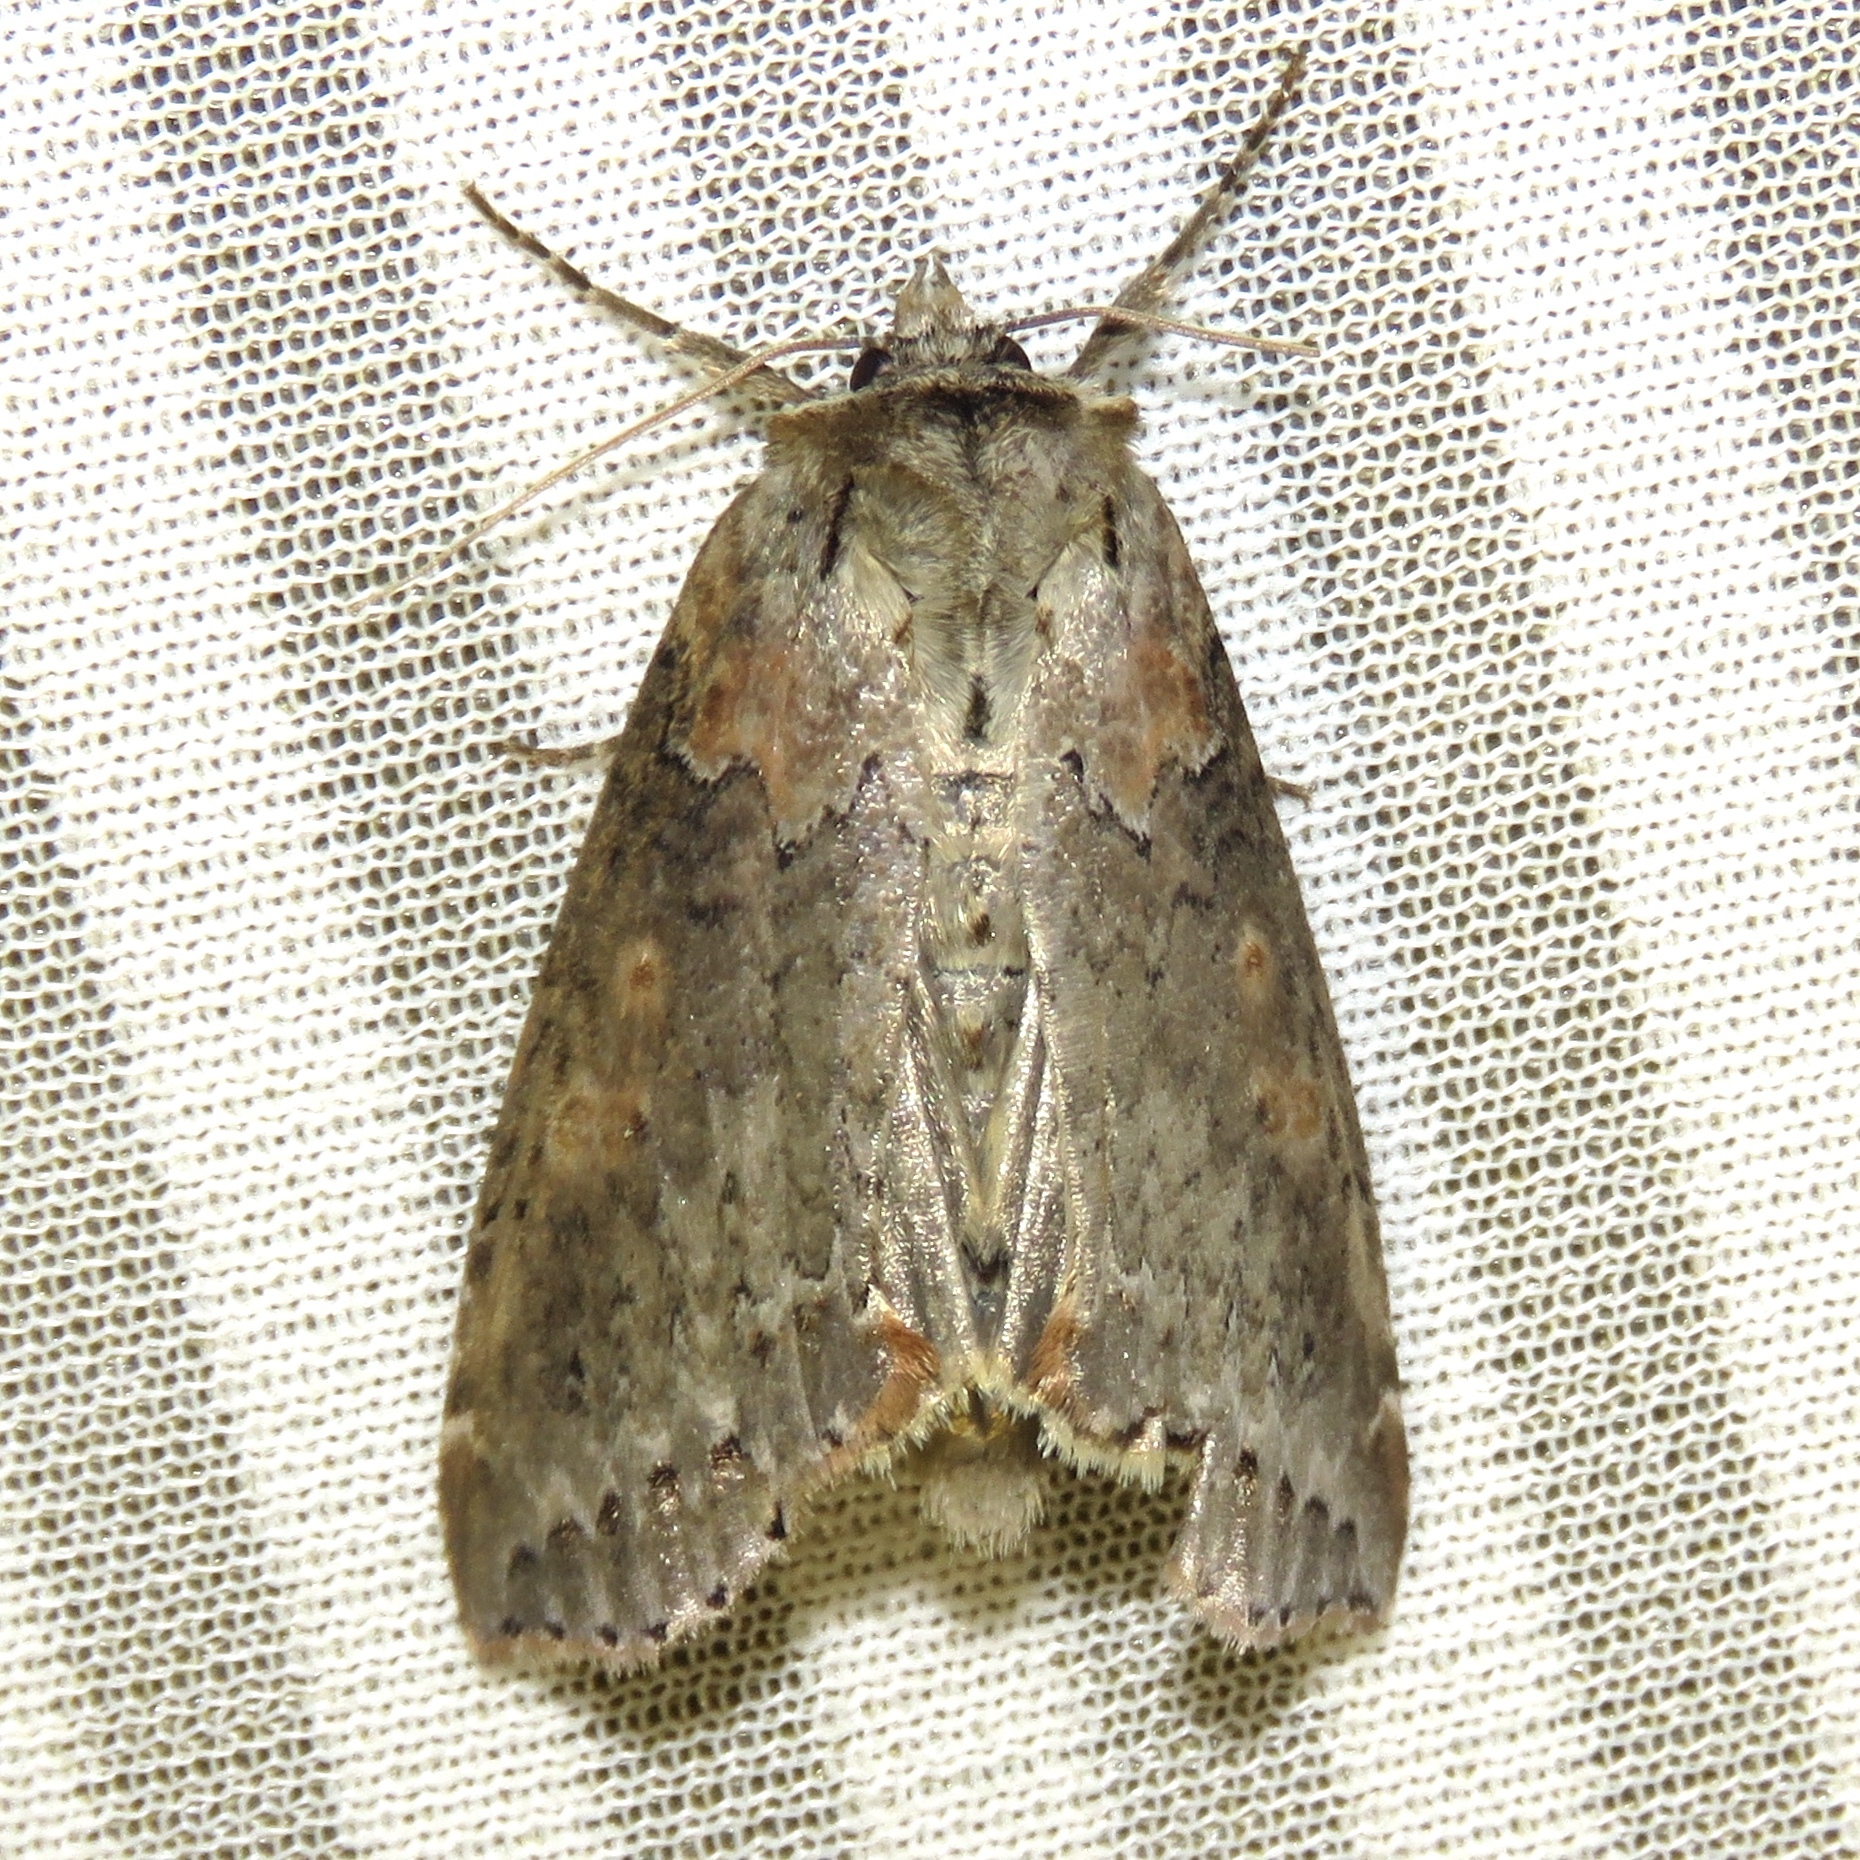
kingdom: Animalia
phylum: Arthropoda
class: Insecta
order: Lepidoptera
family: Drepanidae
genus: Pseudothyatira
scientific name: Pseudothyatira cymatophoroides
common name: Tufted thyatirid moth
